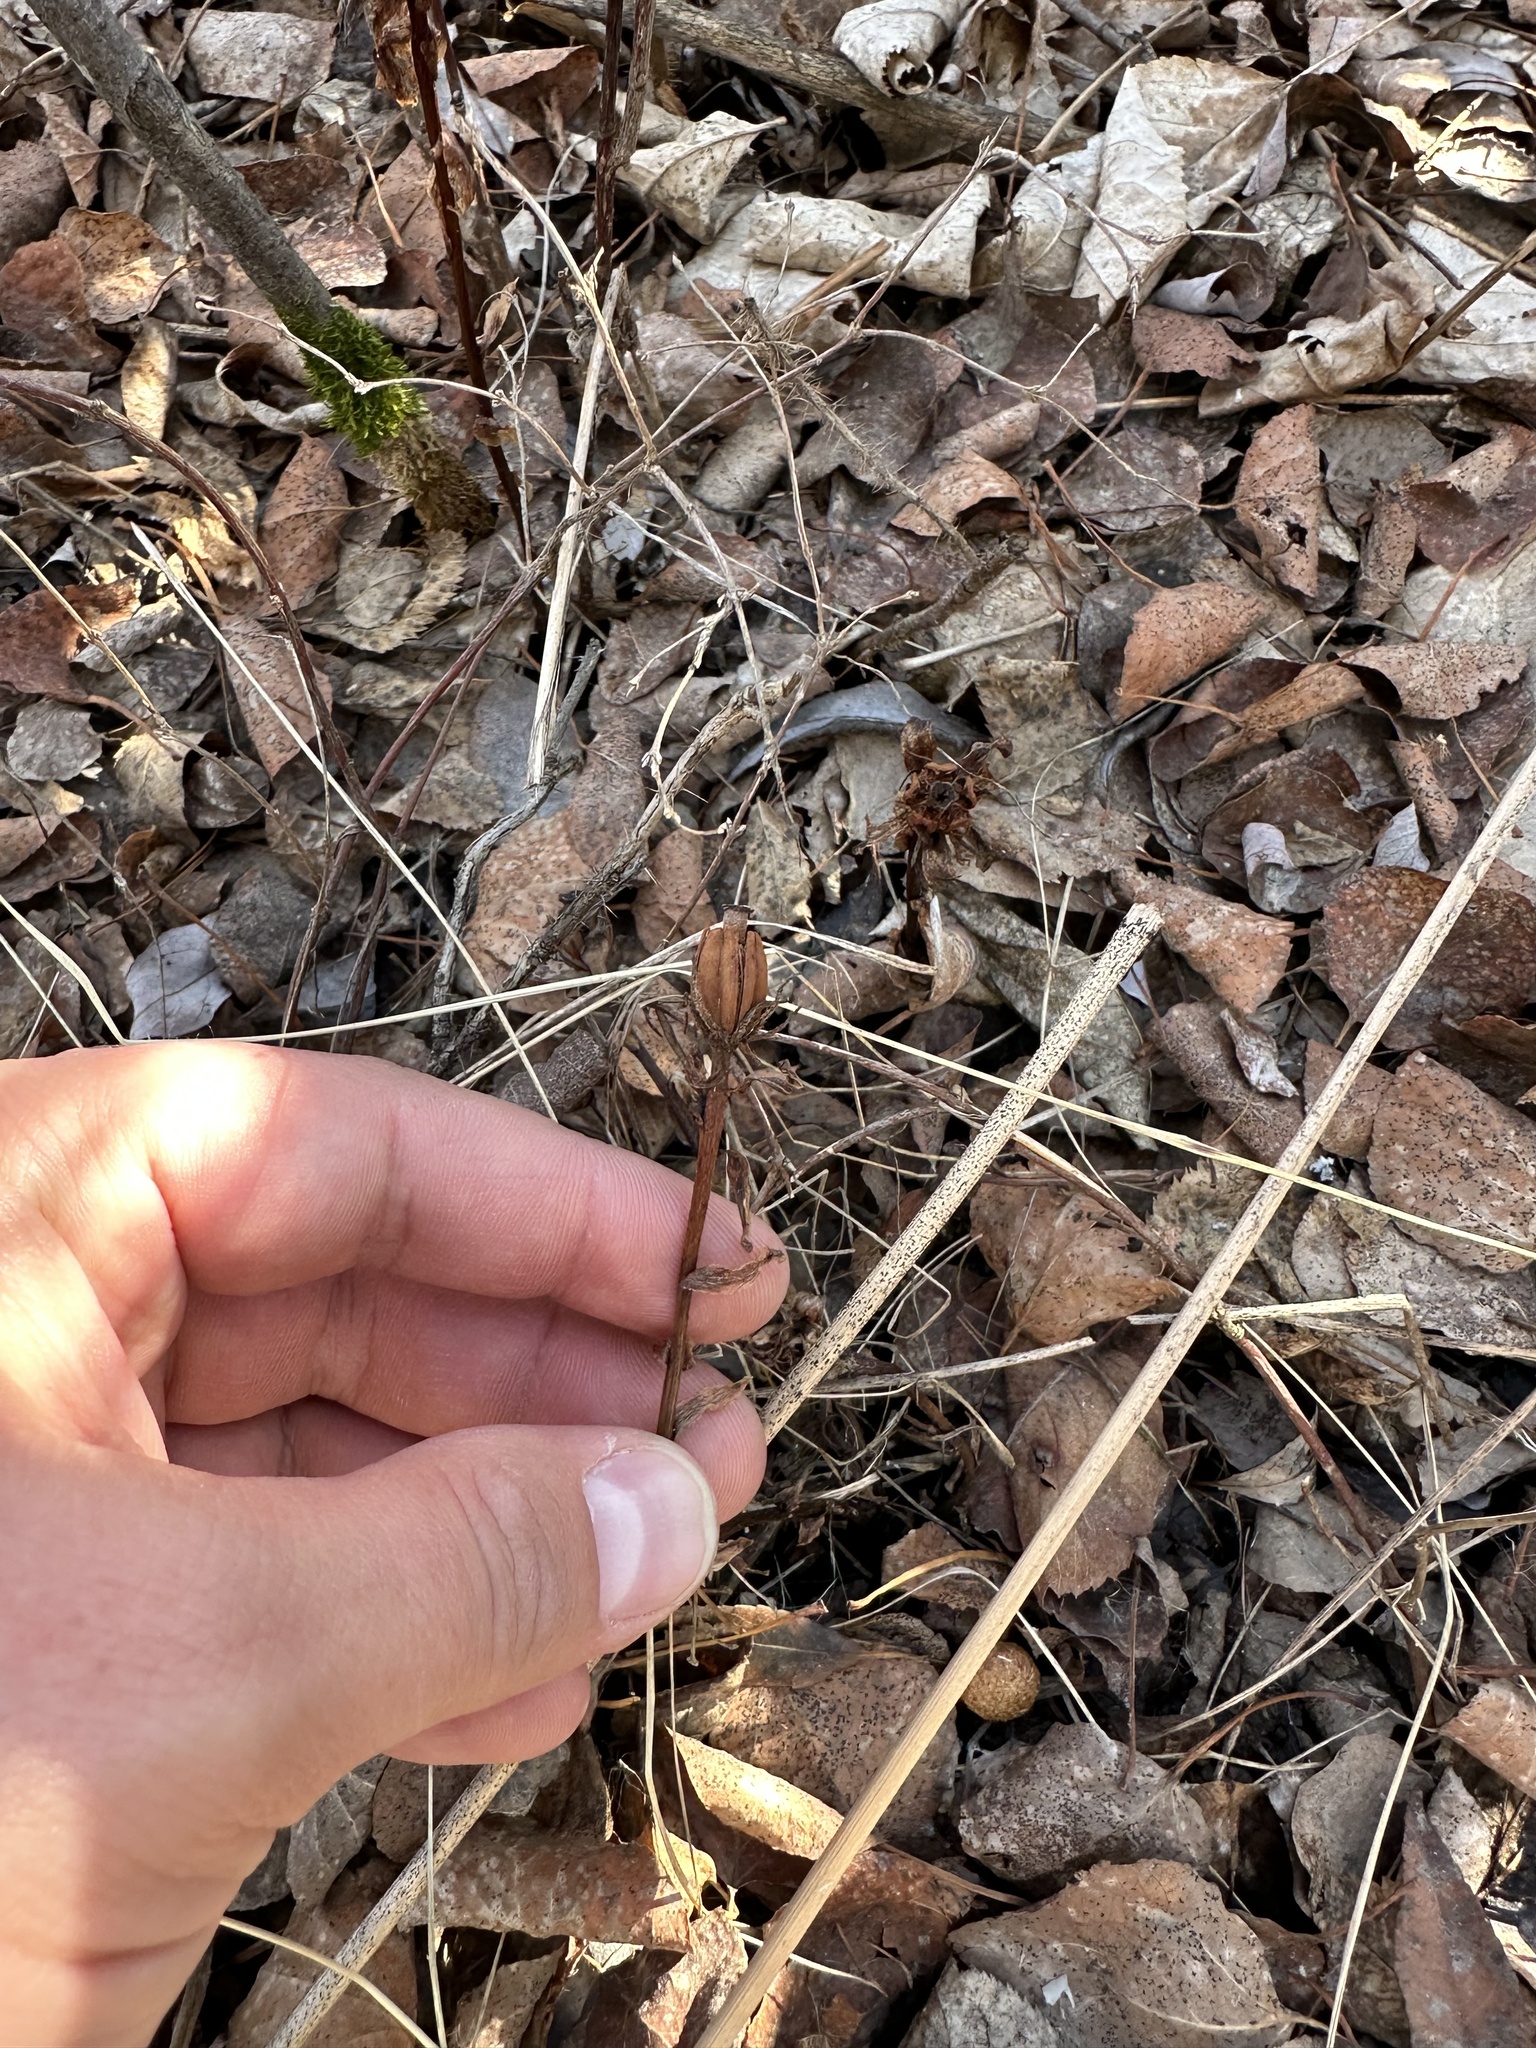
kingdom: Plantae
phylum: Tracheophyta
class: Magnoliopsida
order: Ericales
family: Ericaceae
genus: Monotropa
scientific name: Monotropa uniflora
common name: Convulsion root
